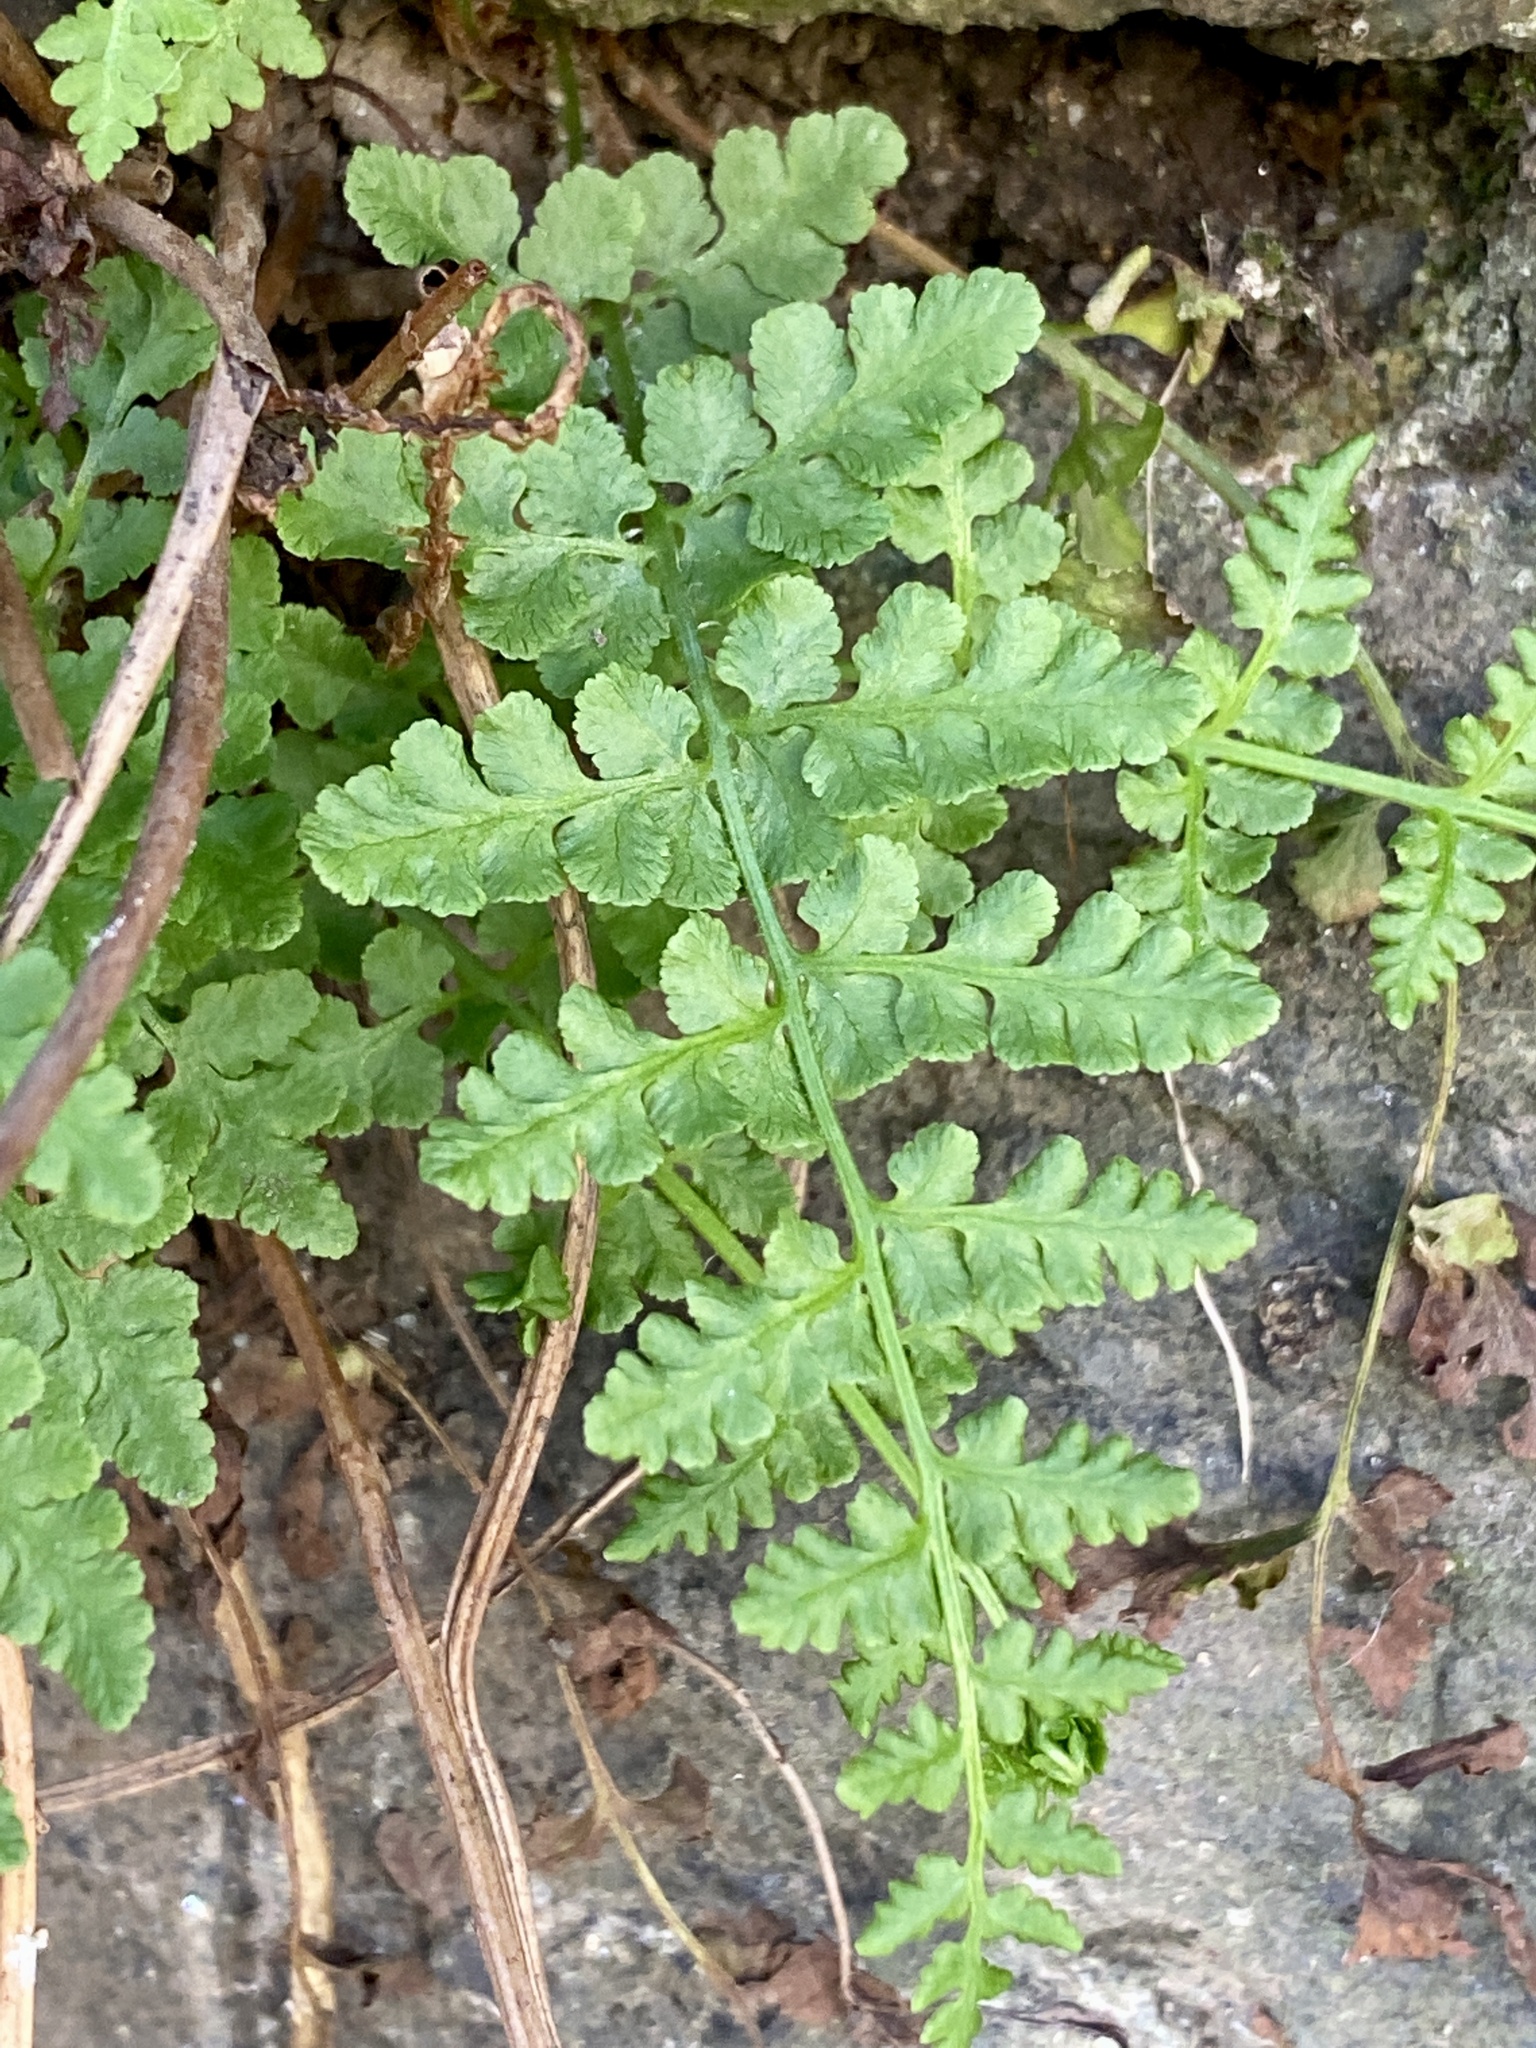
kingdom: Plantae
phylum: Tracheophyta
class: Polypodiopsida
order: Polypodiales
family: Woodsiaceae
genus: Physematium
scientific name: Physematium obtusum
